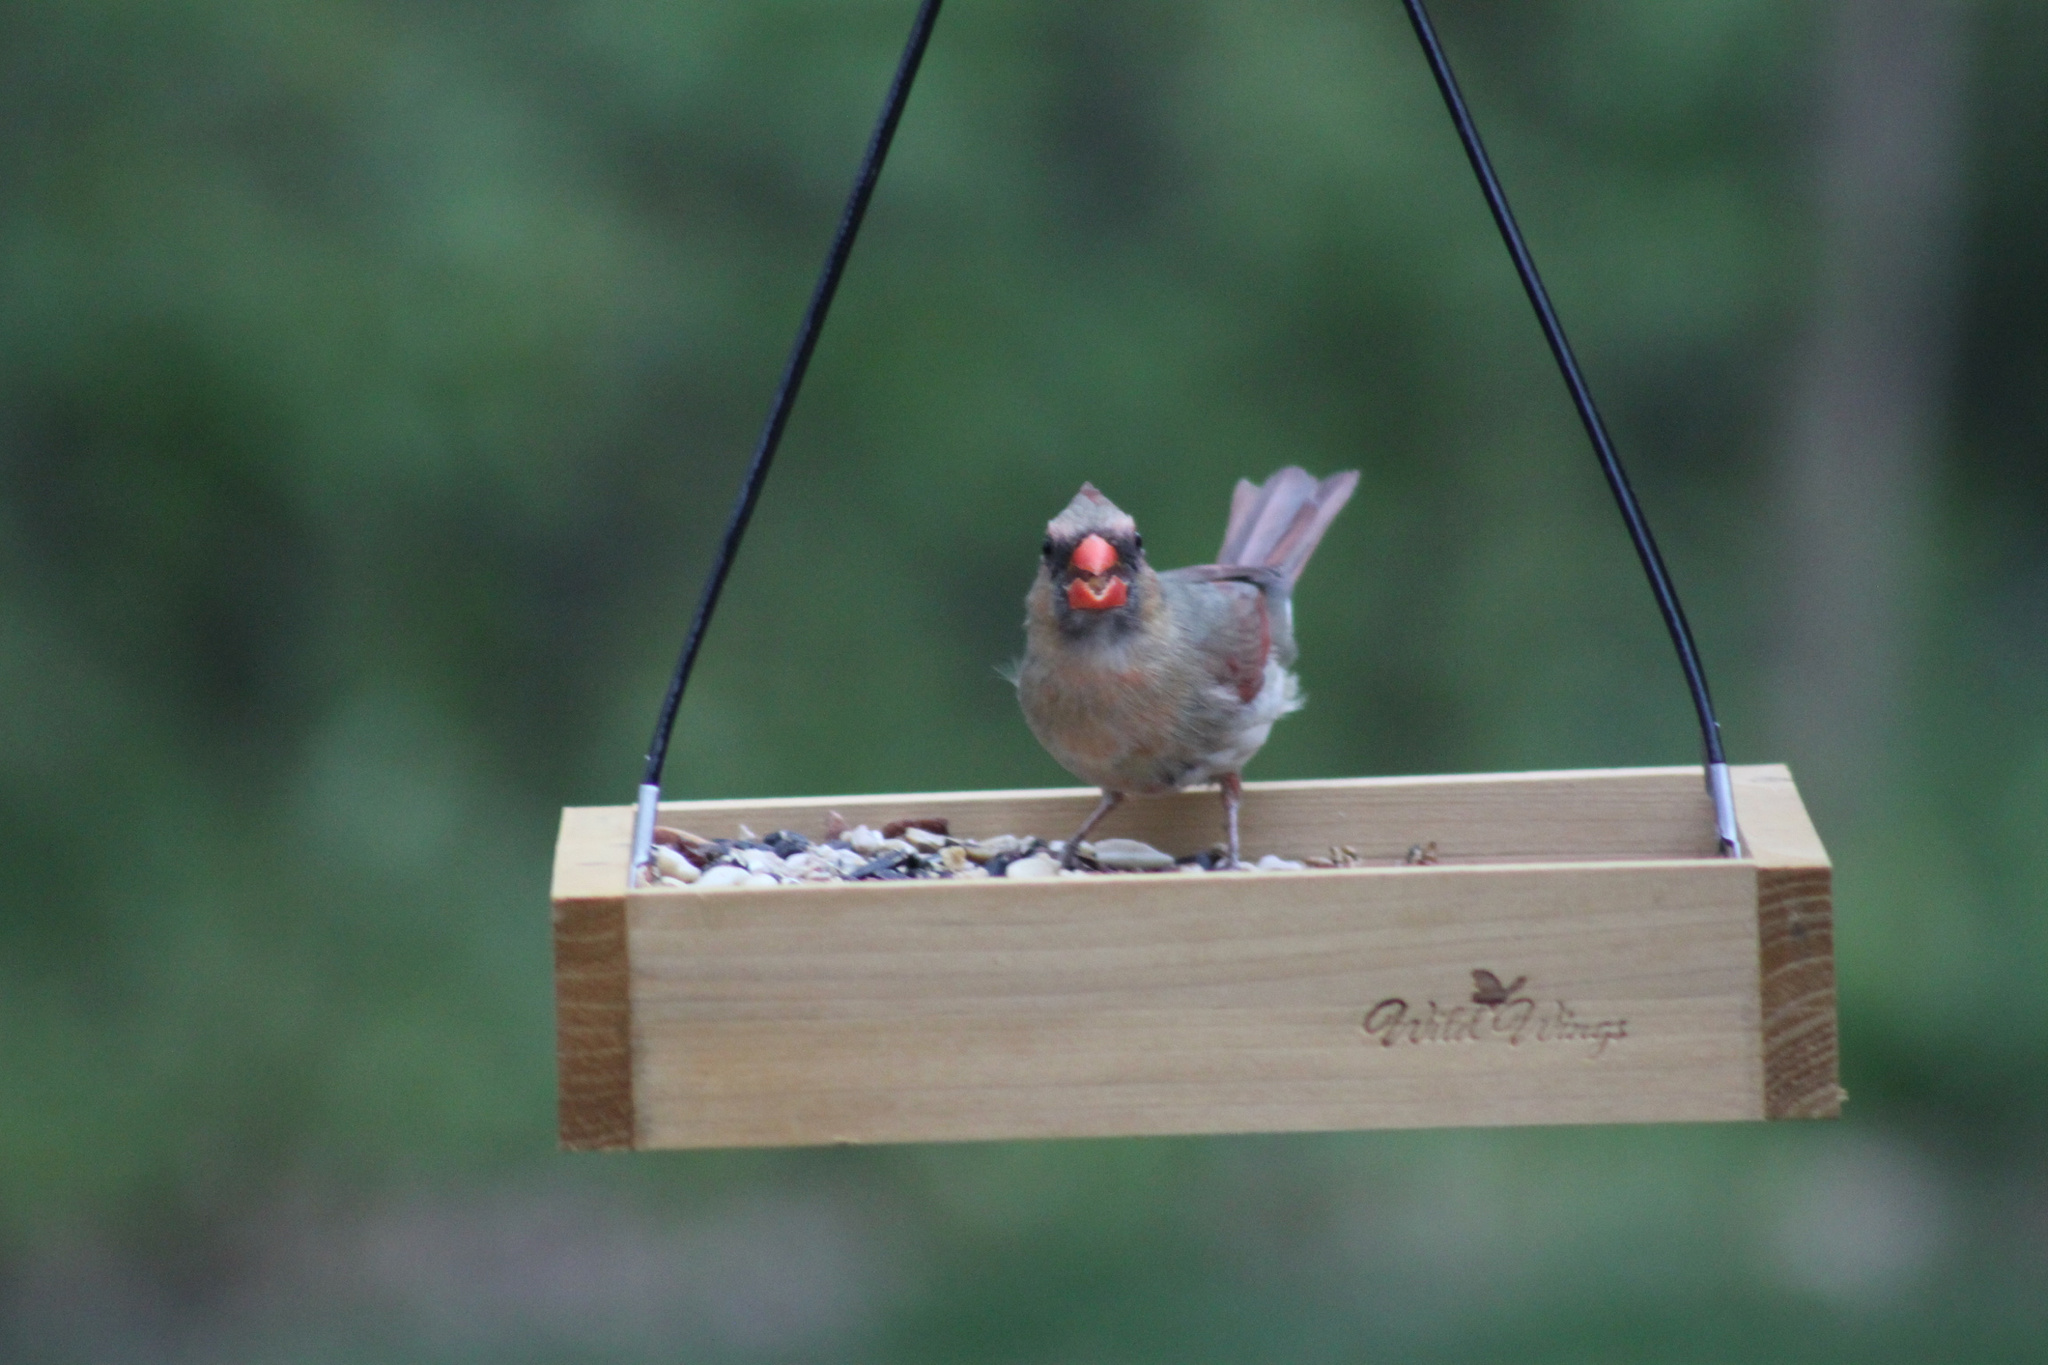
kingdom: Animalia
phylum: Chordata
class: Aves
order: Passeriformes
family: Cardinalidae
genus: Cardinalis
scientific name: Cardinalis cardinalis
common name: Northern cardinal
